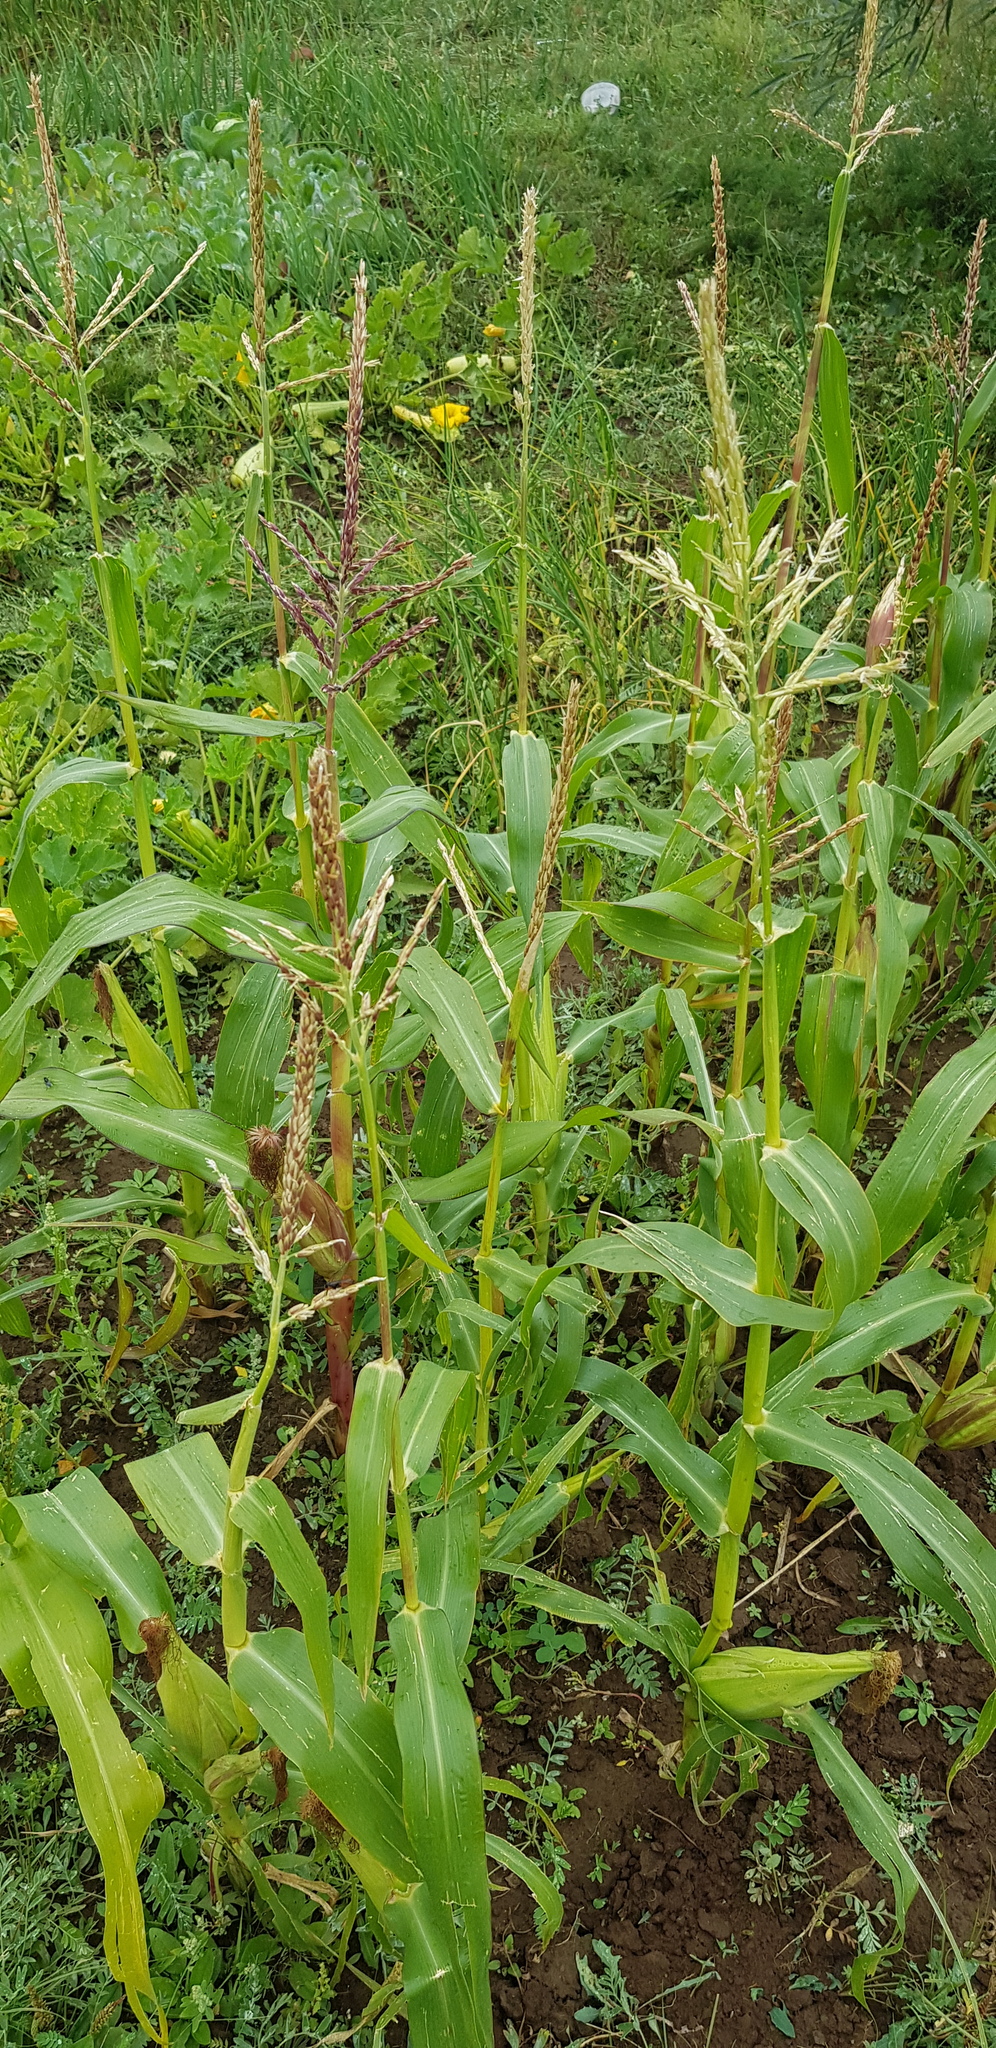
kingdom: Plantae
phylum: Tracheophyta
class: Liliopsida
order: Poales
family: Poaceae
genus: Zea
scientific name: Zea mays
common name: Maize
